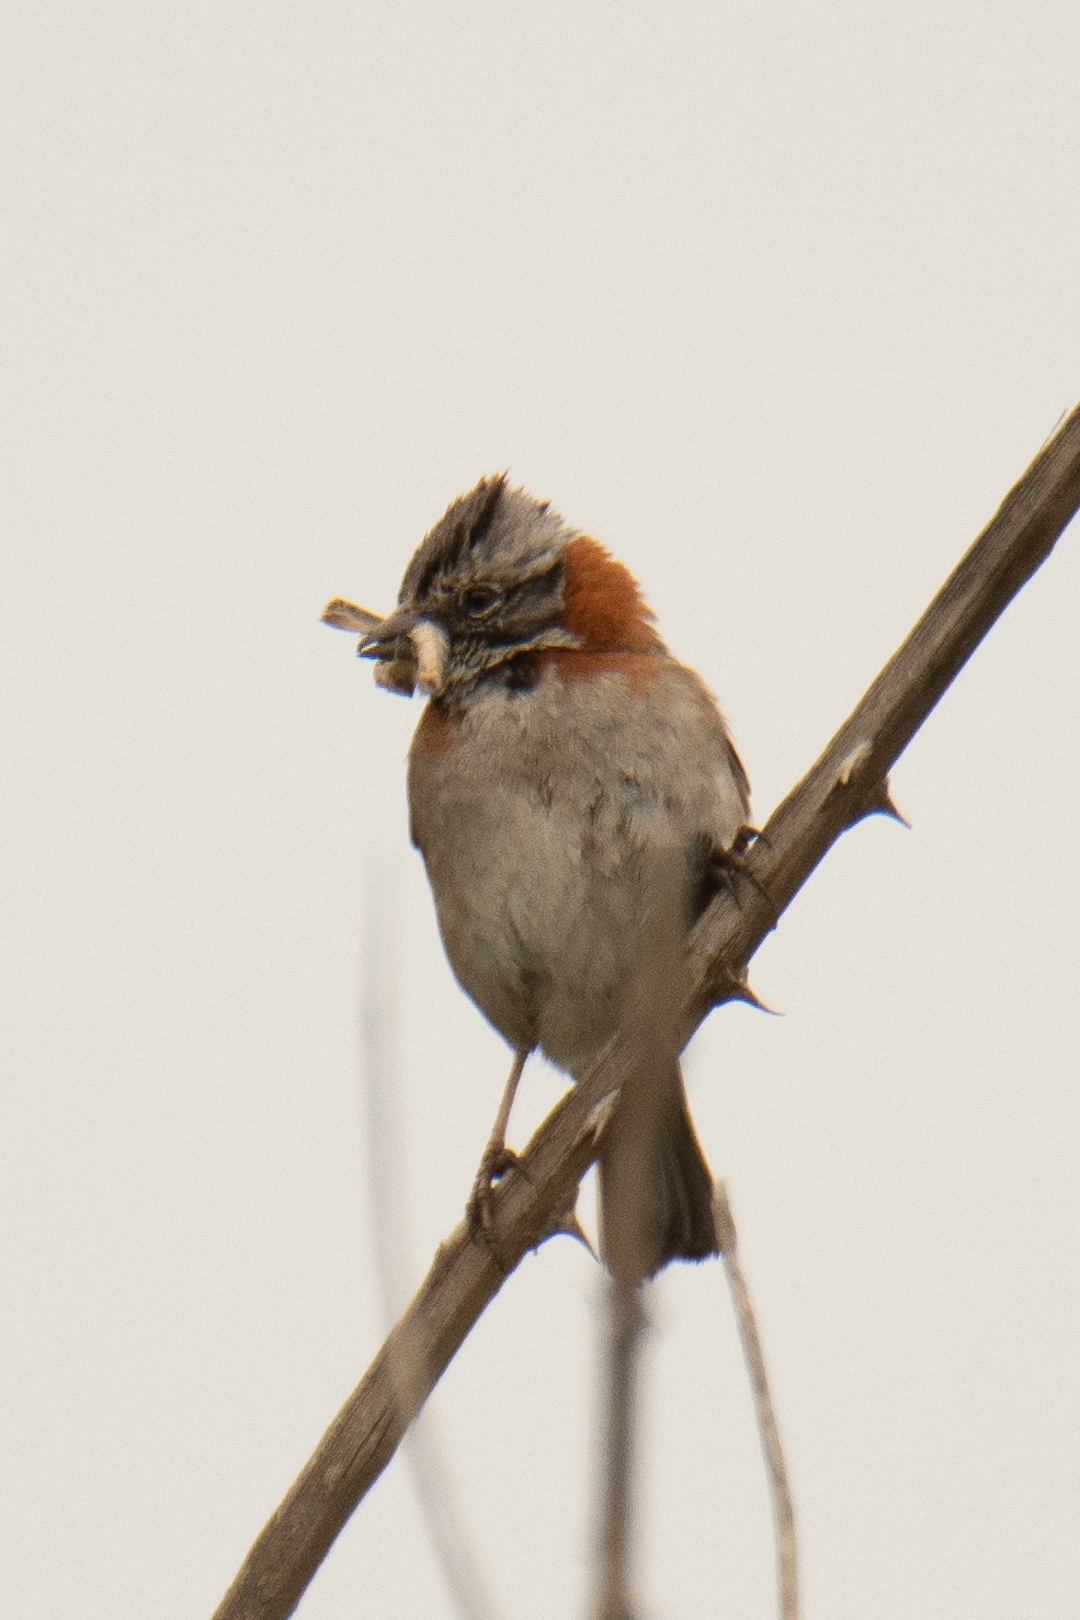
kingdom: Animalia
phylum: Chordata
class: Aves
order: Passeriformes
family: Passerellidae
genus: Zonotrichia
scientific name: Zonotrichia capensis
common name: Rufous-collared sparrow
